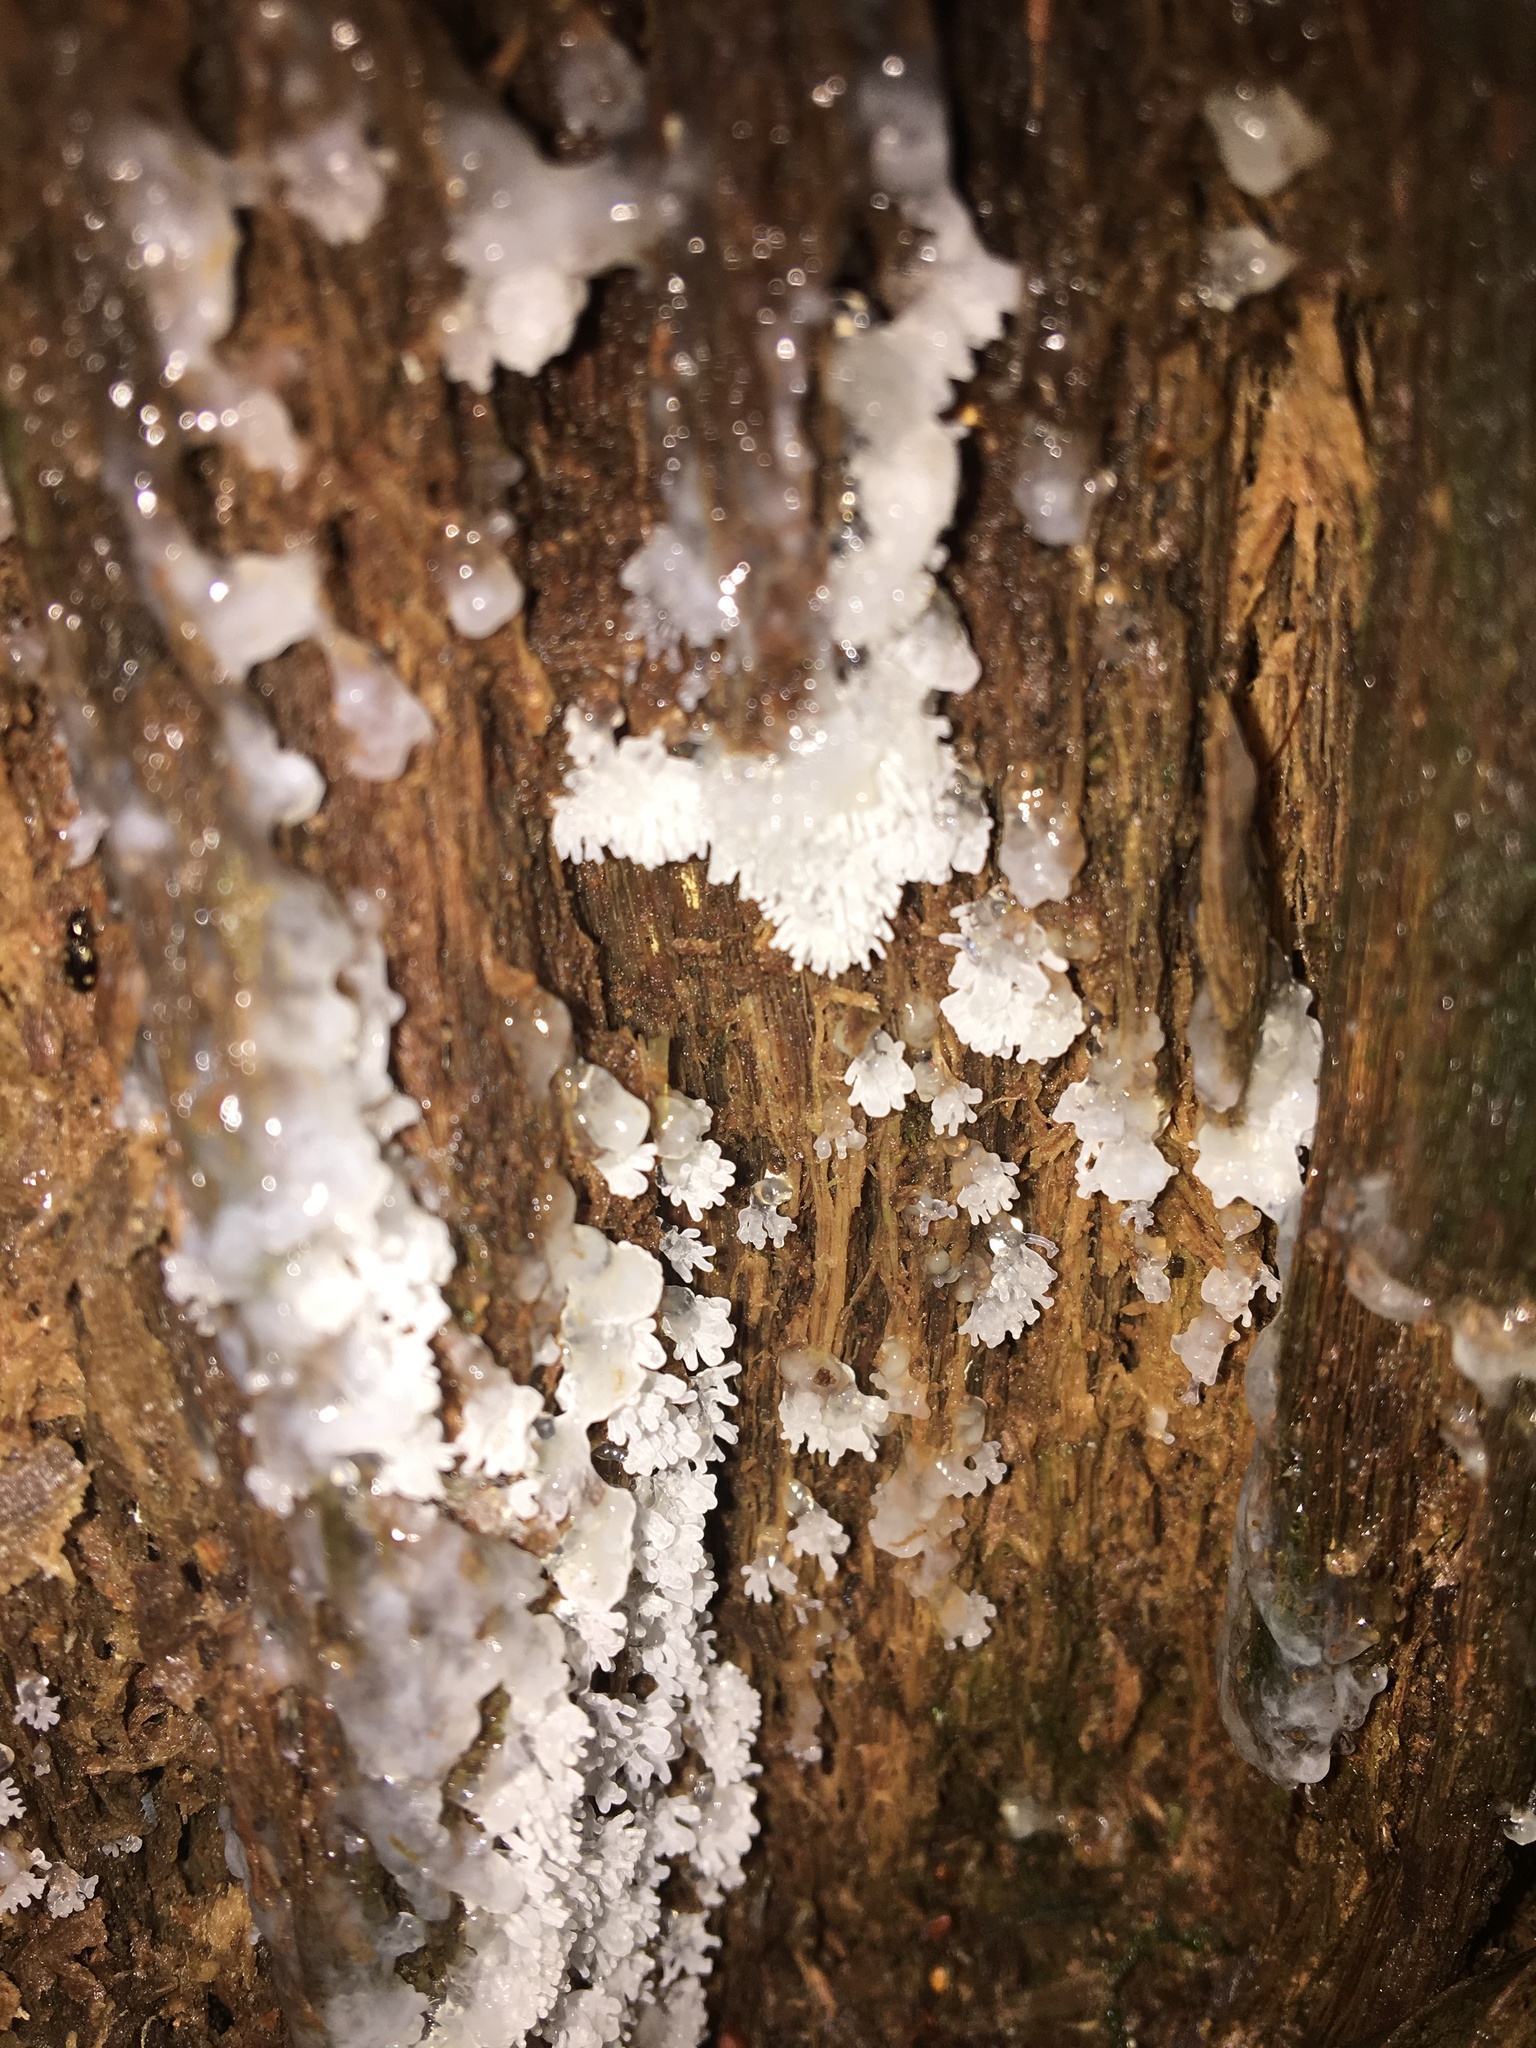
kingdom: Protozoa
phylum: Mycetozoa
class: Protosteliomycetes
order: Ceratiomyxales
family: Ceratiomyxaceae
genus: Ceratiomyxa
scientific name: Ceratiomyxa fruticulosa
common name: Honeycomb coral slime mold
